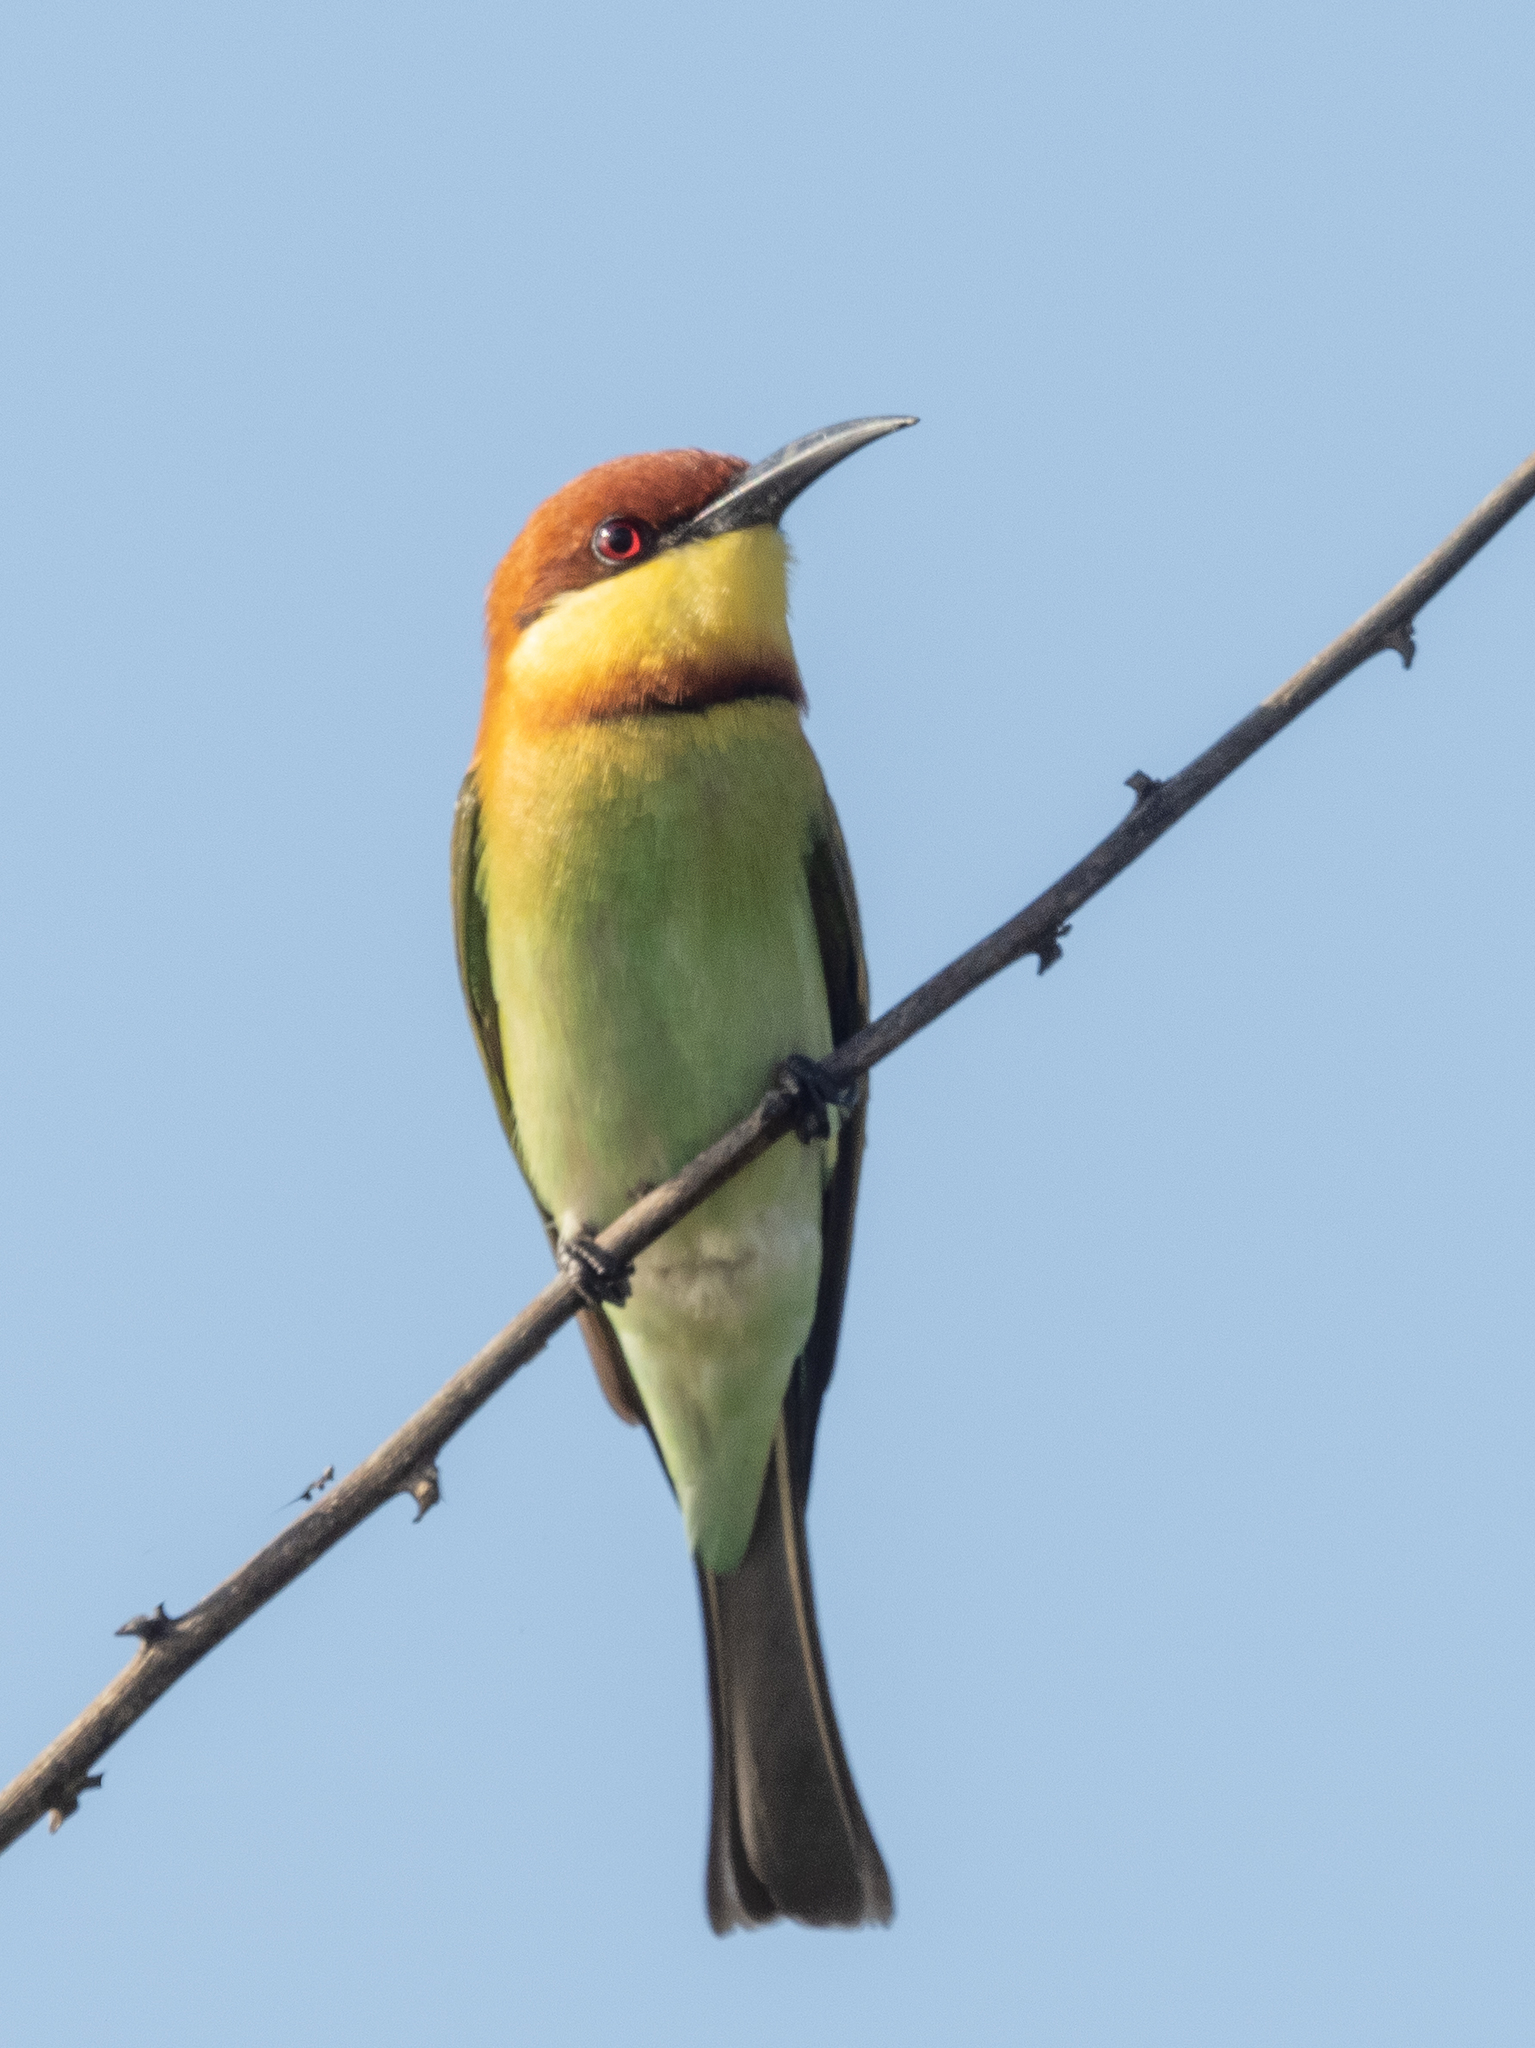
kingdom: Animalia
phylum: Chordata
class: Aves
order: Coraciiformes
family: Meropidae
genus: Merops
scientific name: Merops leschenaulti
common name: Chestnut-headed bee-eater
